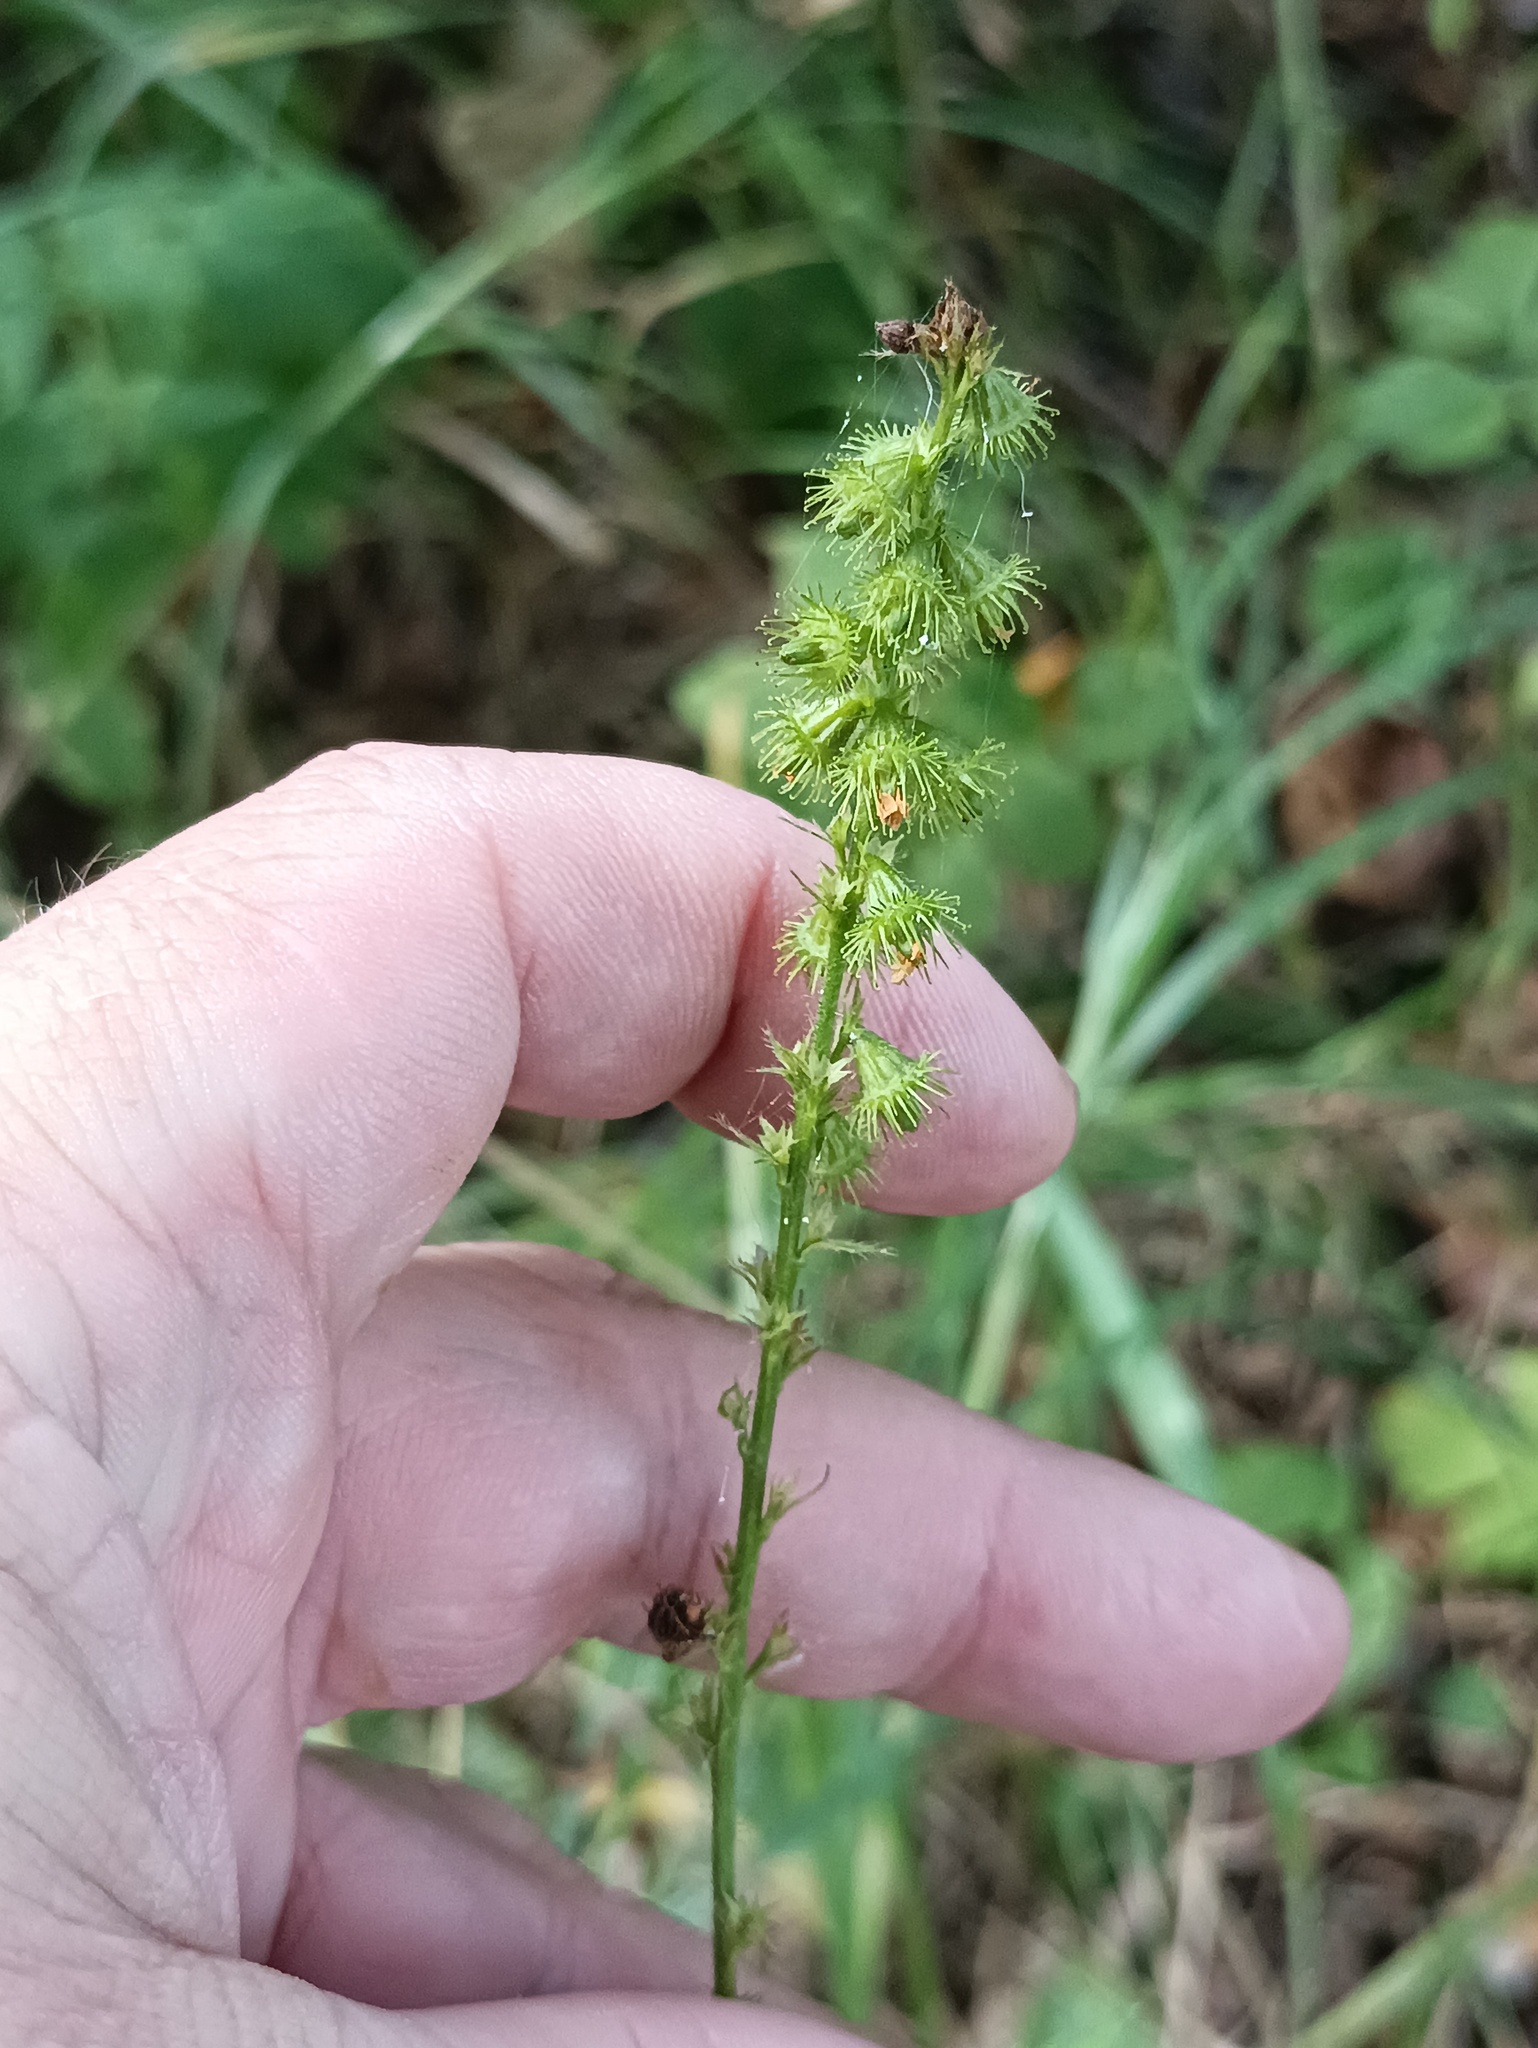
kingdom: Plantae
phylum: Tracheophyta
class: Magnoliopsida
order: Rosales
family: Rosaceae
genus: Agrimonia
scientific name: Agrimonia pilosa
